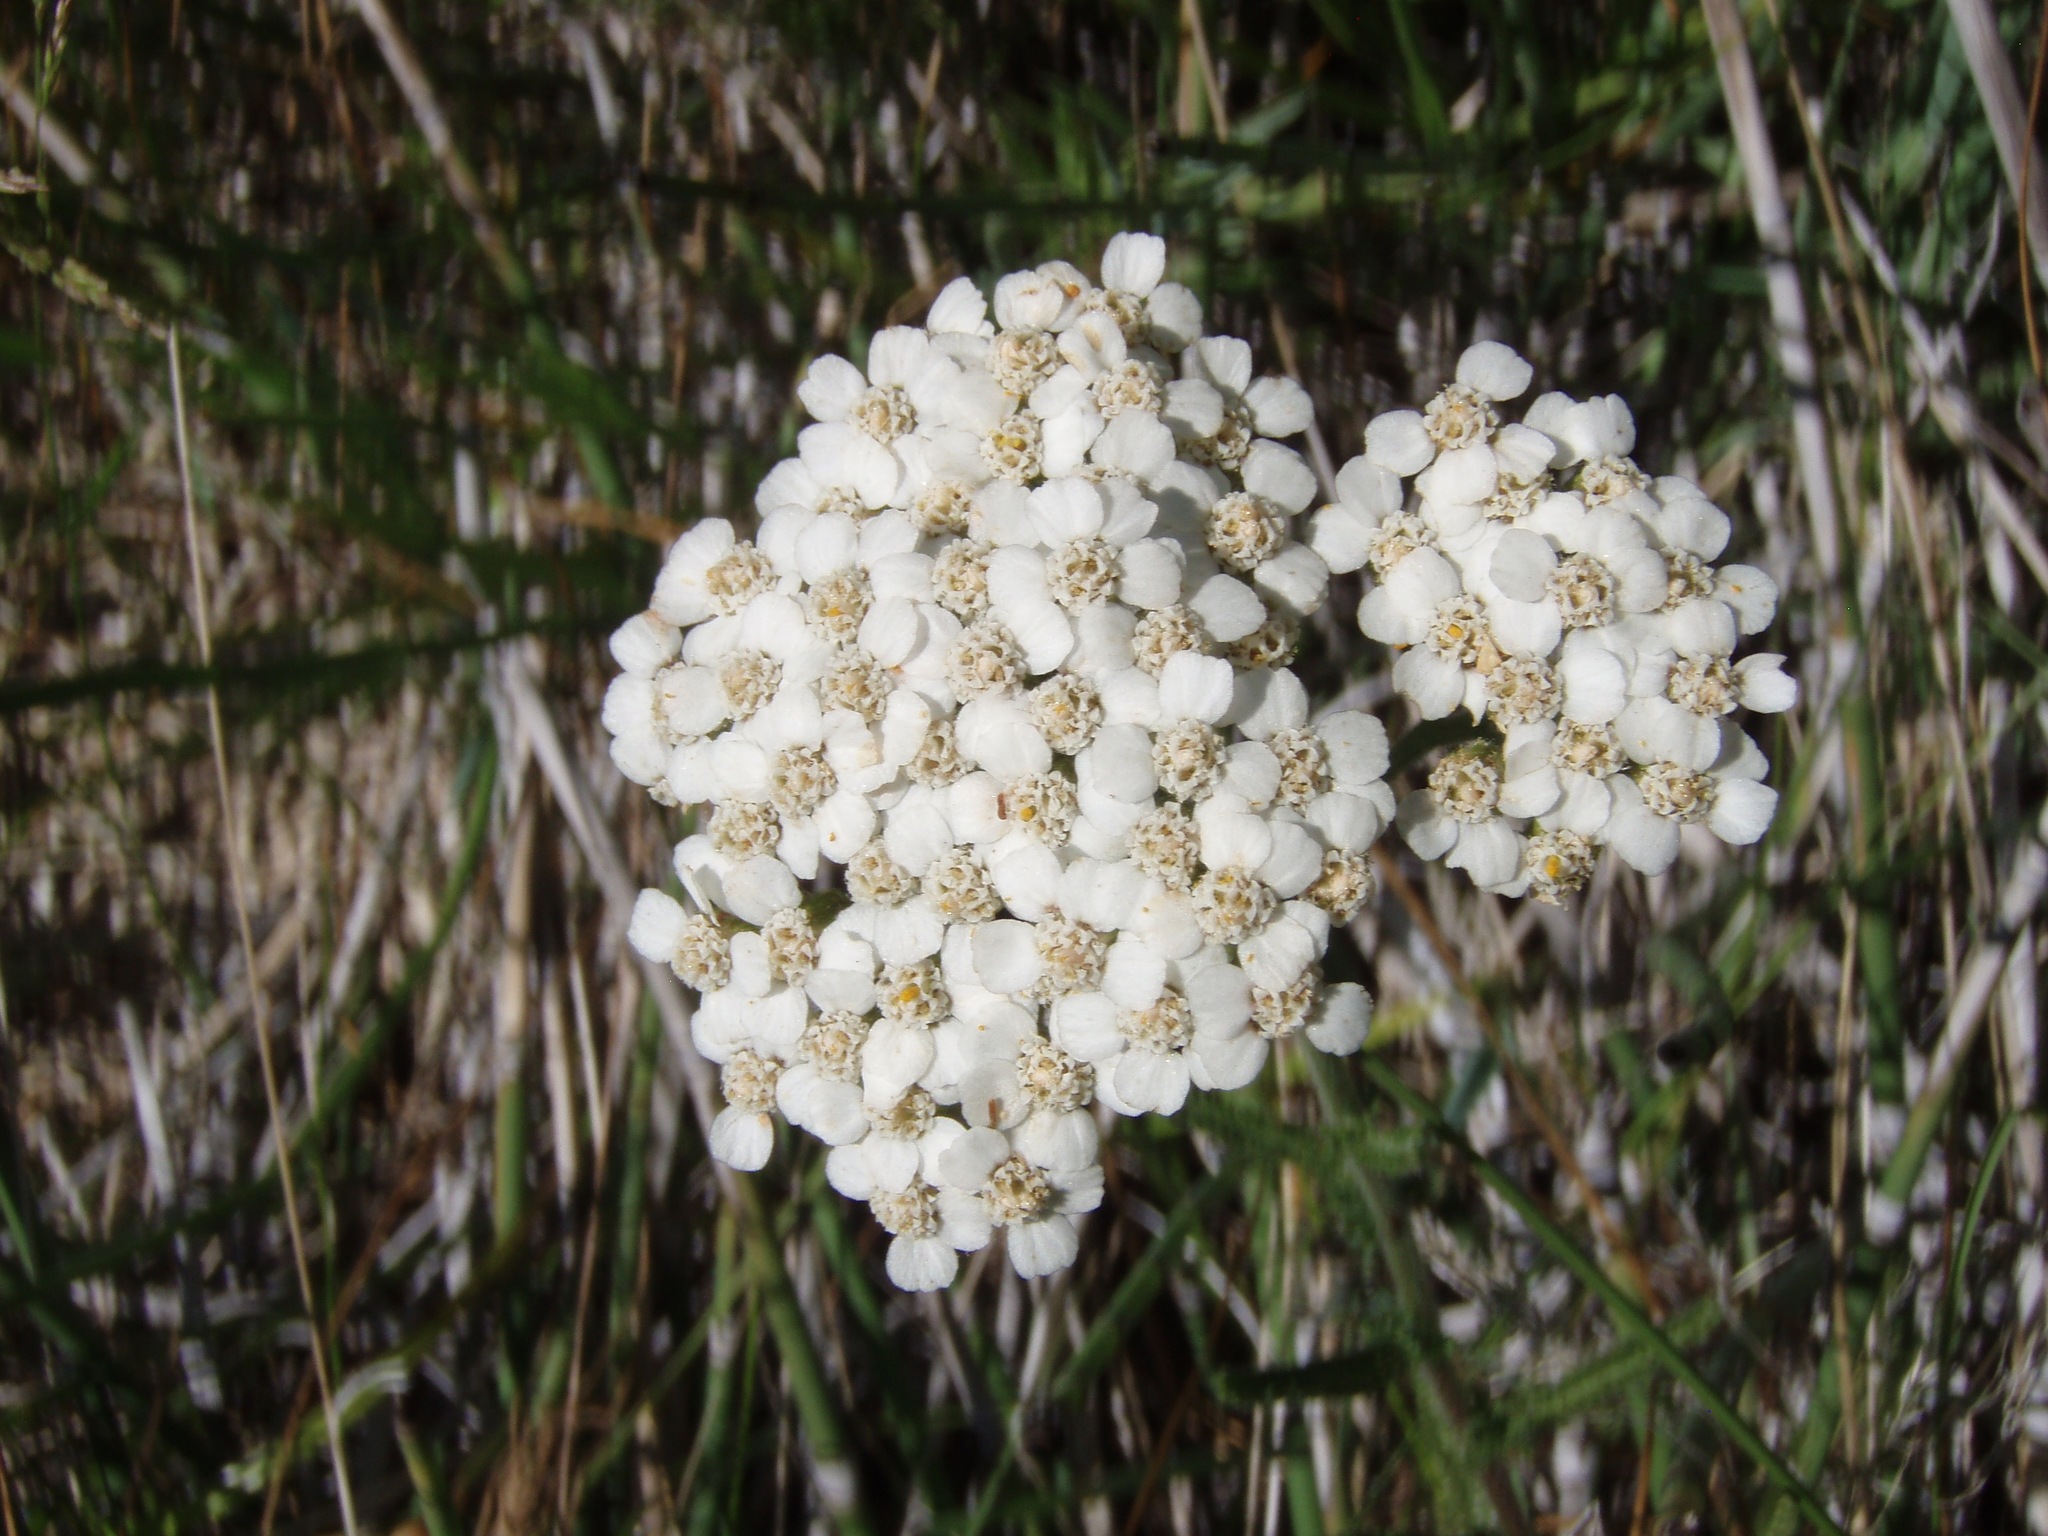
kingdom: Plantae
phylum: Tracheophyta
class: Magnoliopsida
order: Asterales
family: Asteraceae
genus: Achillea
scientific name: Achillea millefolium
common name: Yarrow
